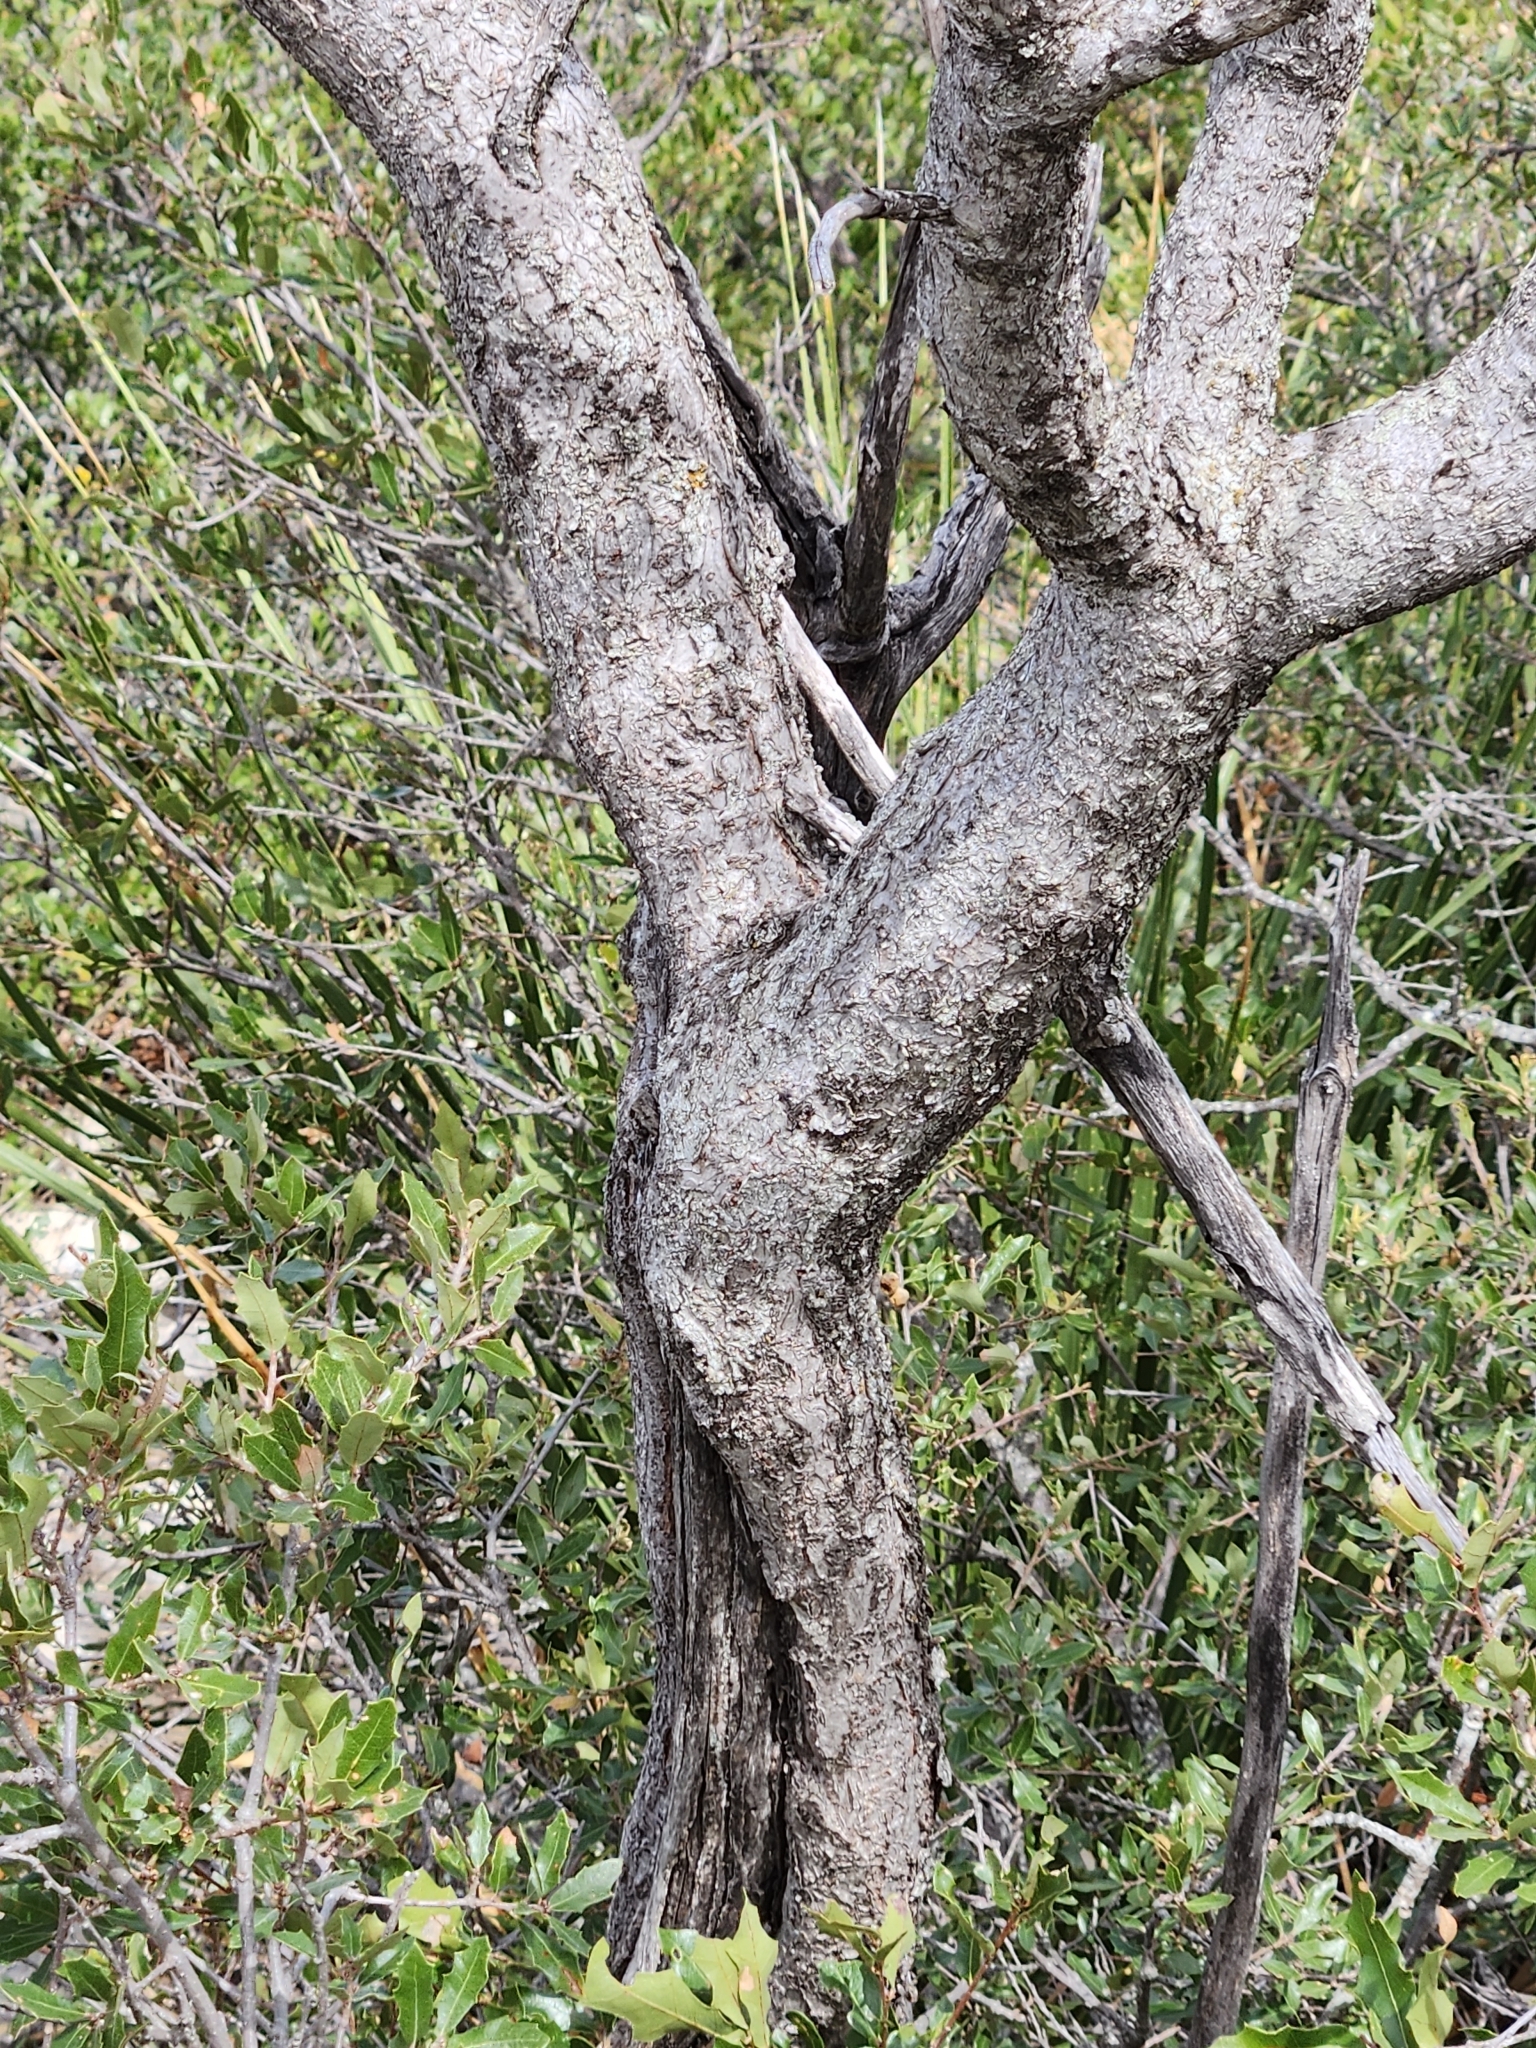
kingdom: Plantae
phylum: Tracheophyta
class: Magnoliopsida
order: Sapindales
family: Anacardiaceae
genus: Rhus
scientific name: Rhus lanceolata
